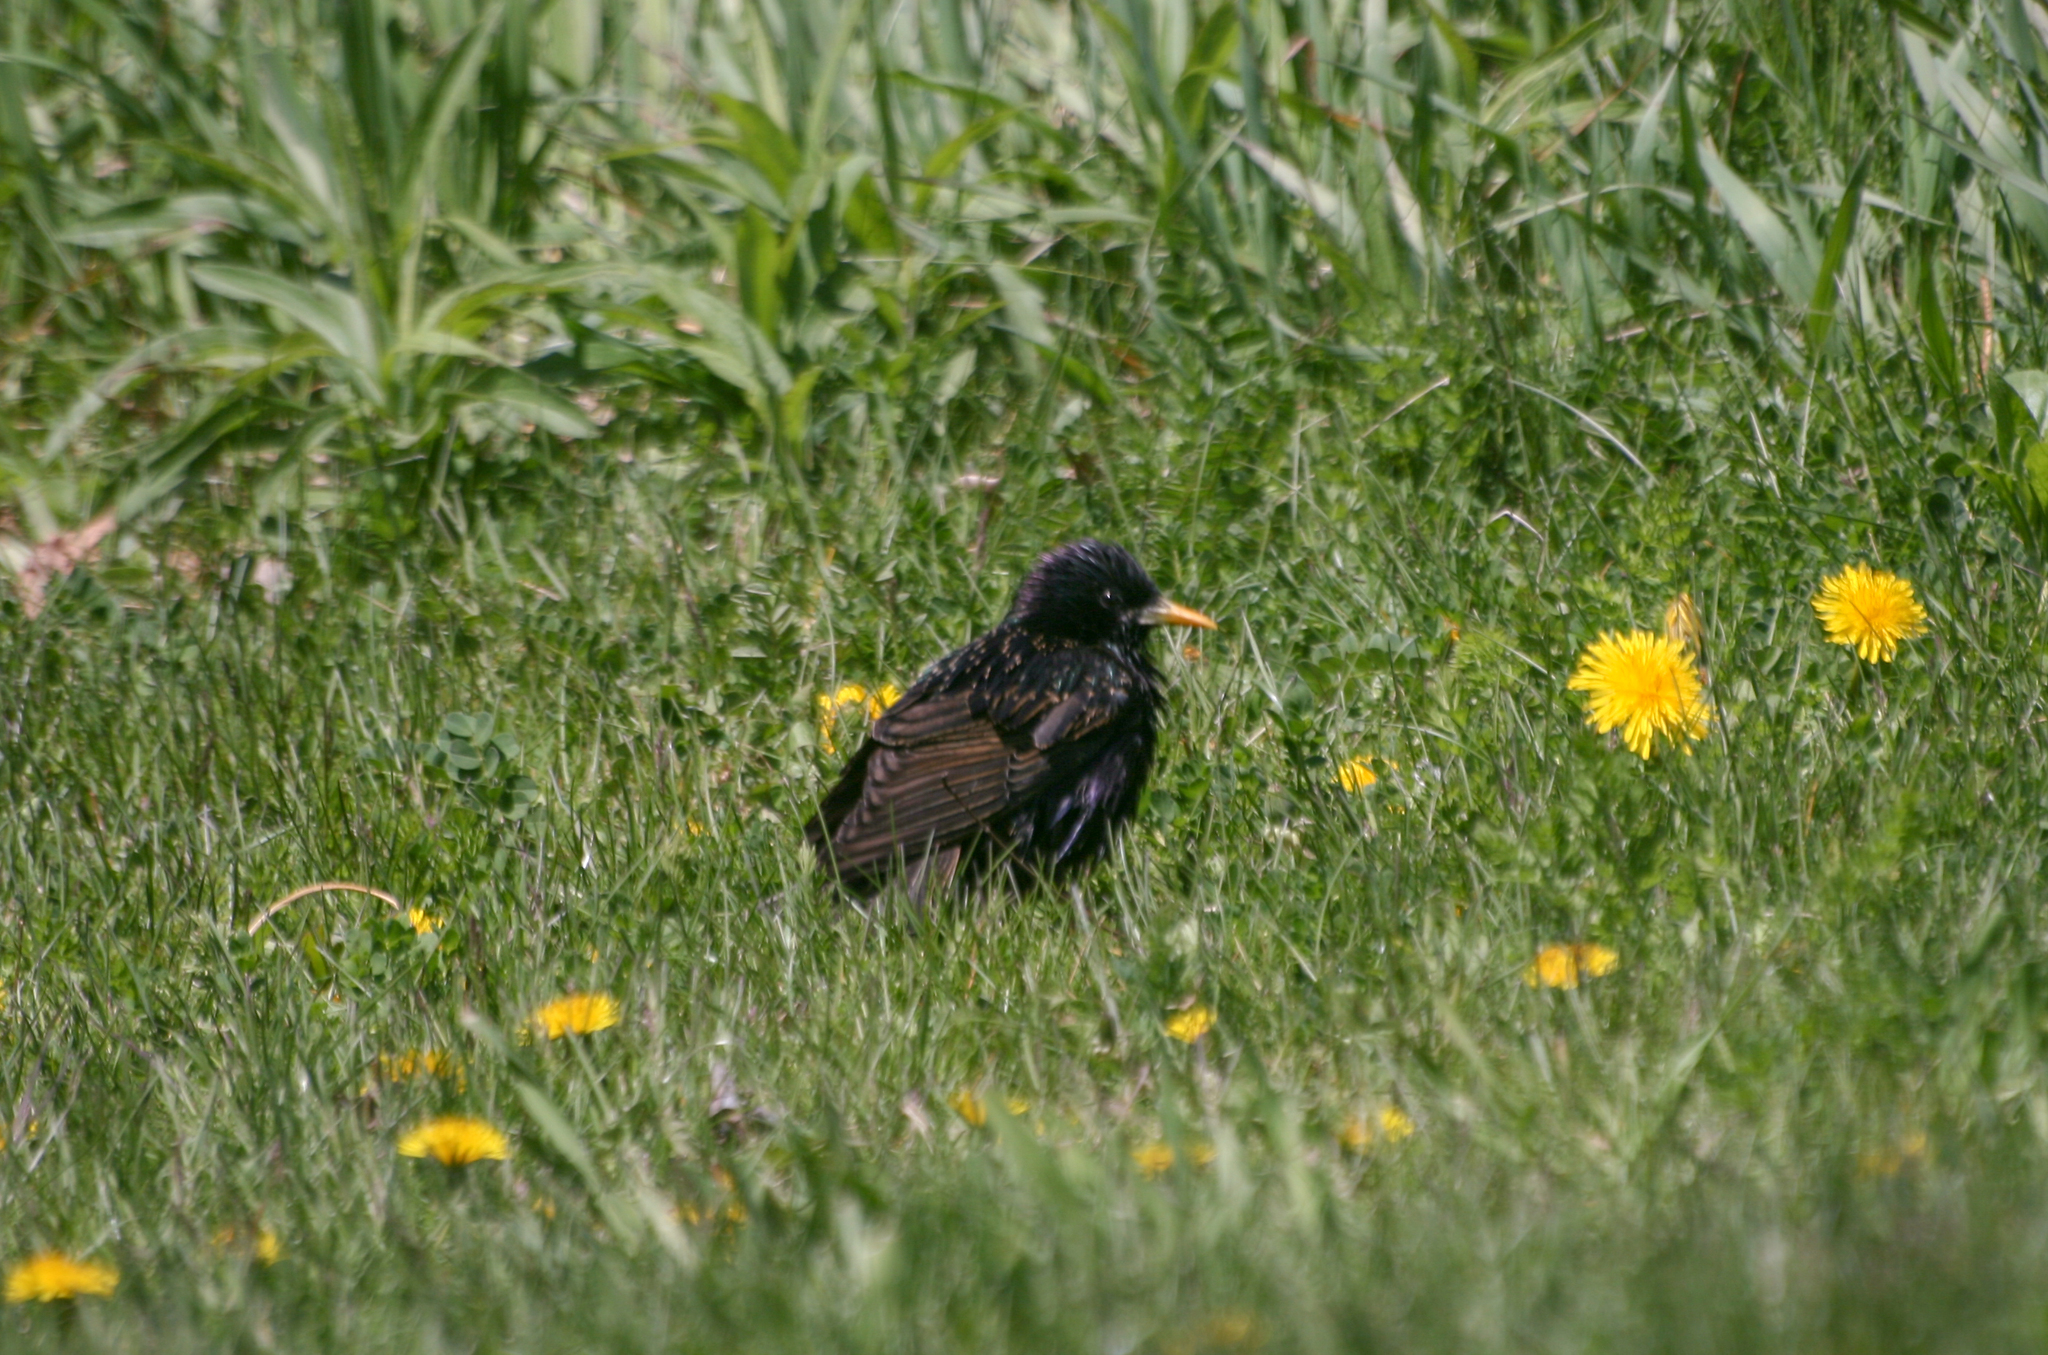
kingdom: Animalia
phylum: Chordata
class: Aves
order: Passeriformes
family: Sturnidae
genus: Sturnus
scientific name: Sturnus vulgaris
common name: Common starling
